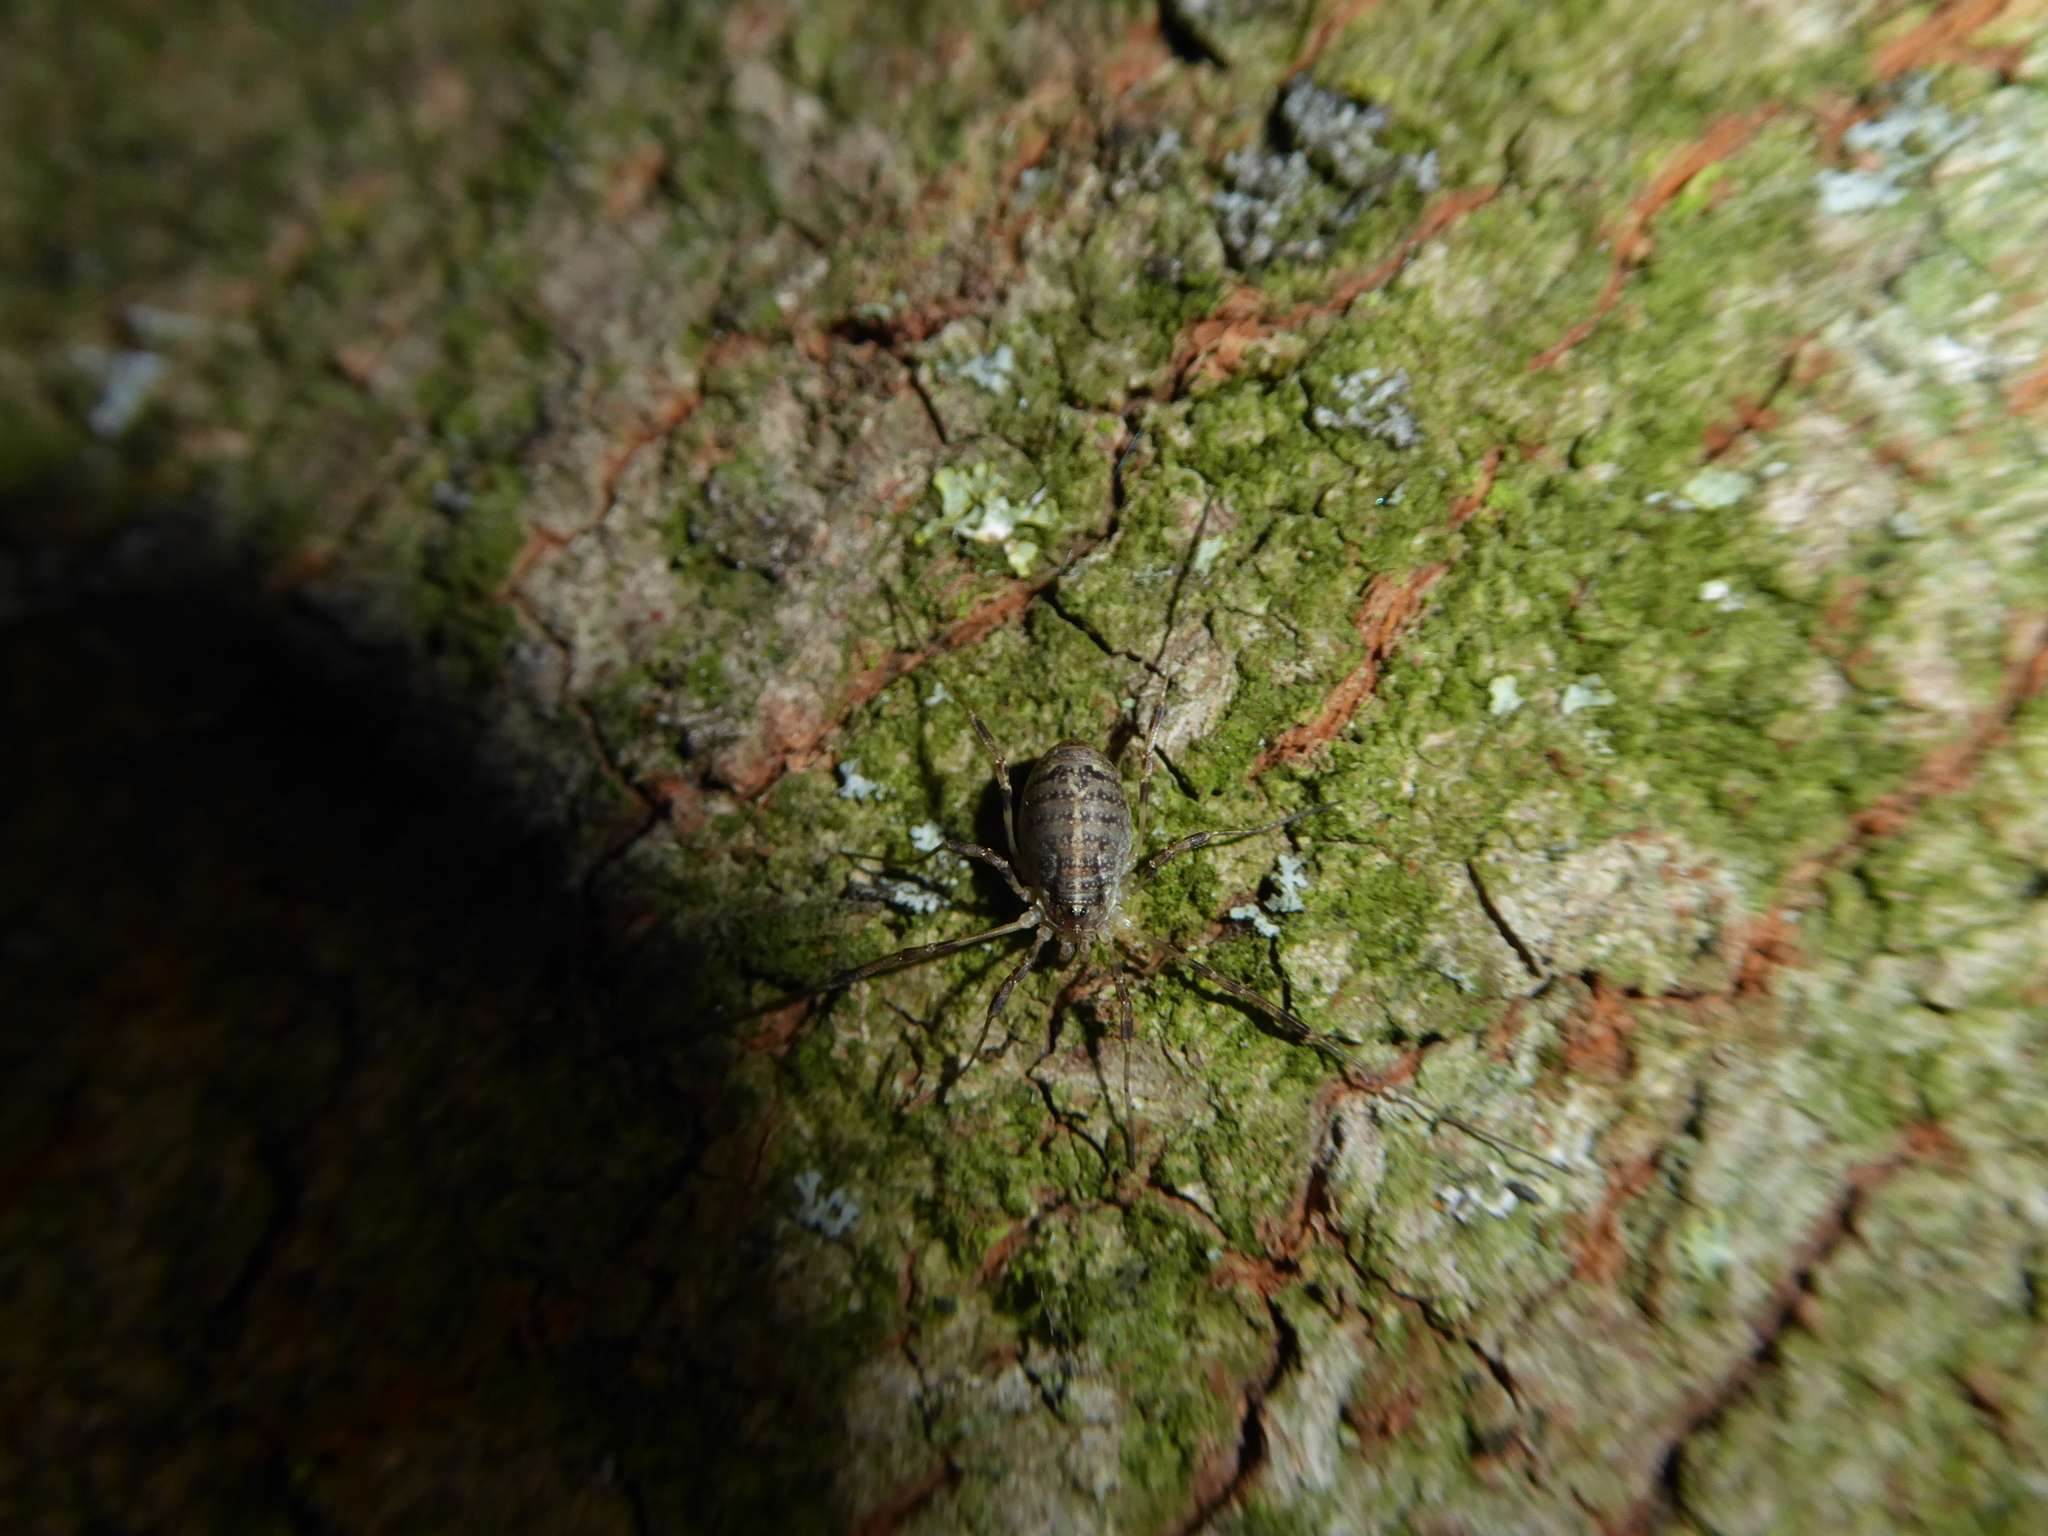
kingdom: Animalia
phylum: Arthropoda
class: Arachnida
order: Opiliones
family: Phalangiidae
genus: Paroligolophus
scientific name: Paroligolophus agrestis
